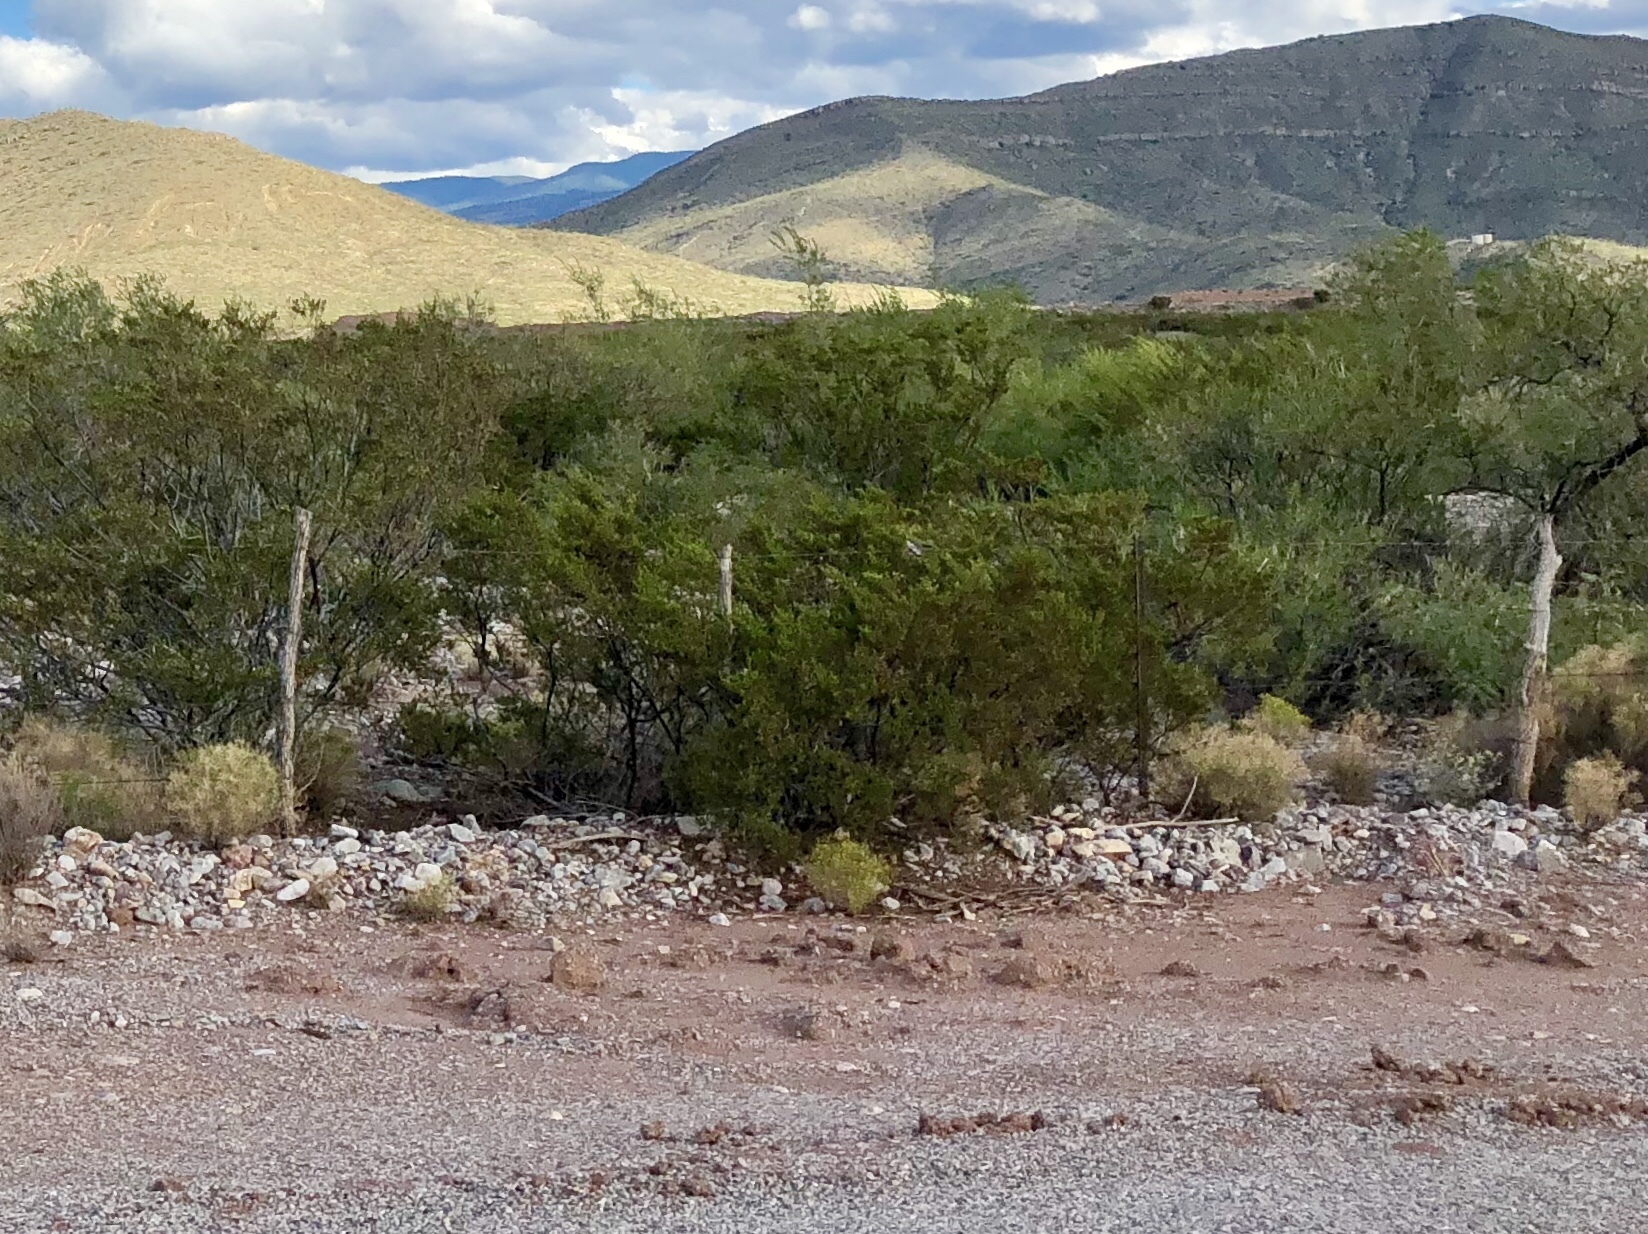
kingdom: Plantae
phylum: Tracheophyta
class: Magnoliopsida
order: Zygophyllales
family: Zygophyllaceae
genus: Larrea
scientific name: Larrea tridentata
